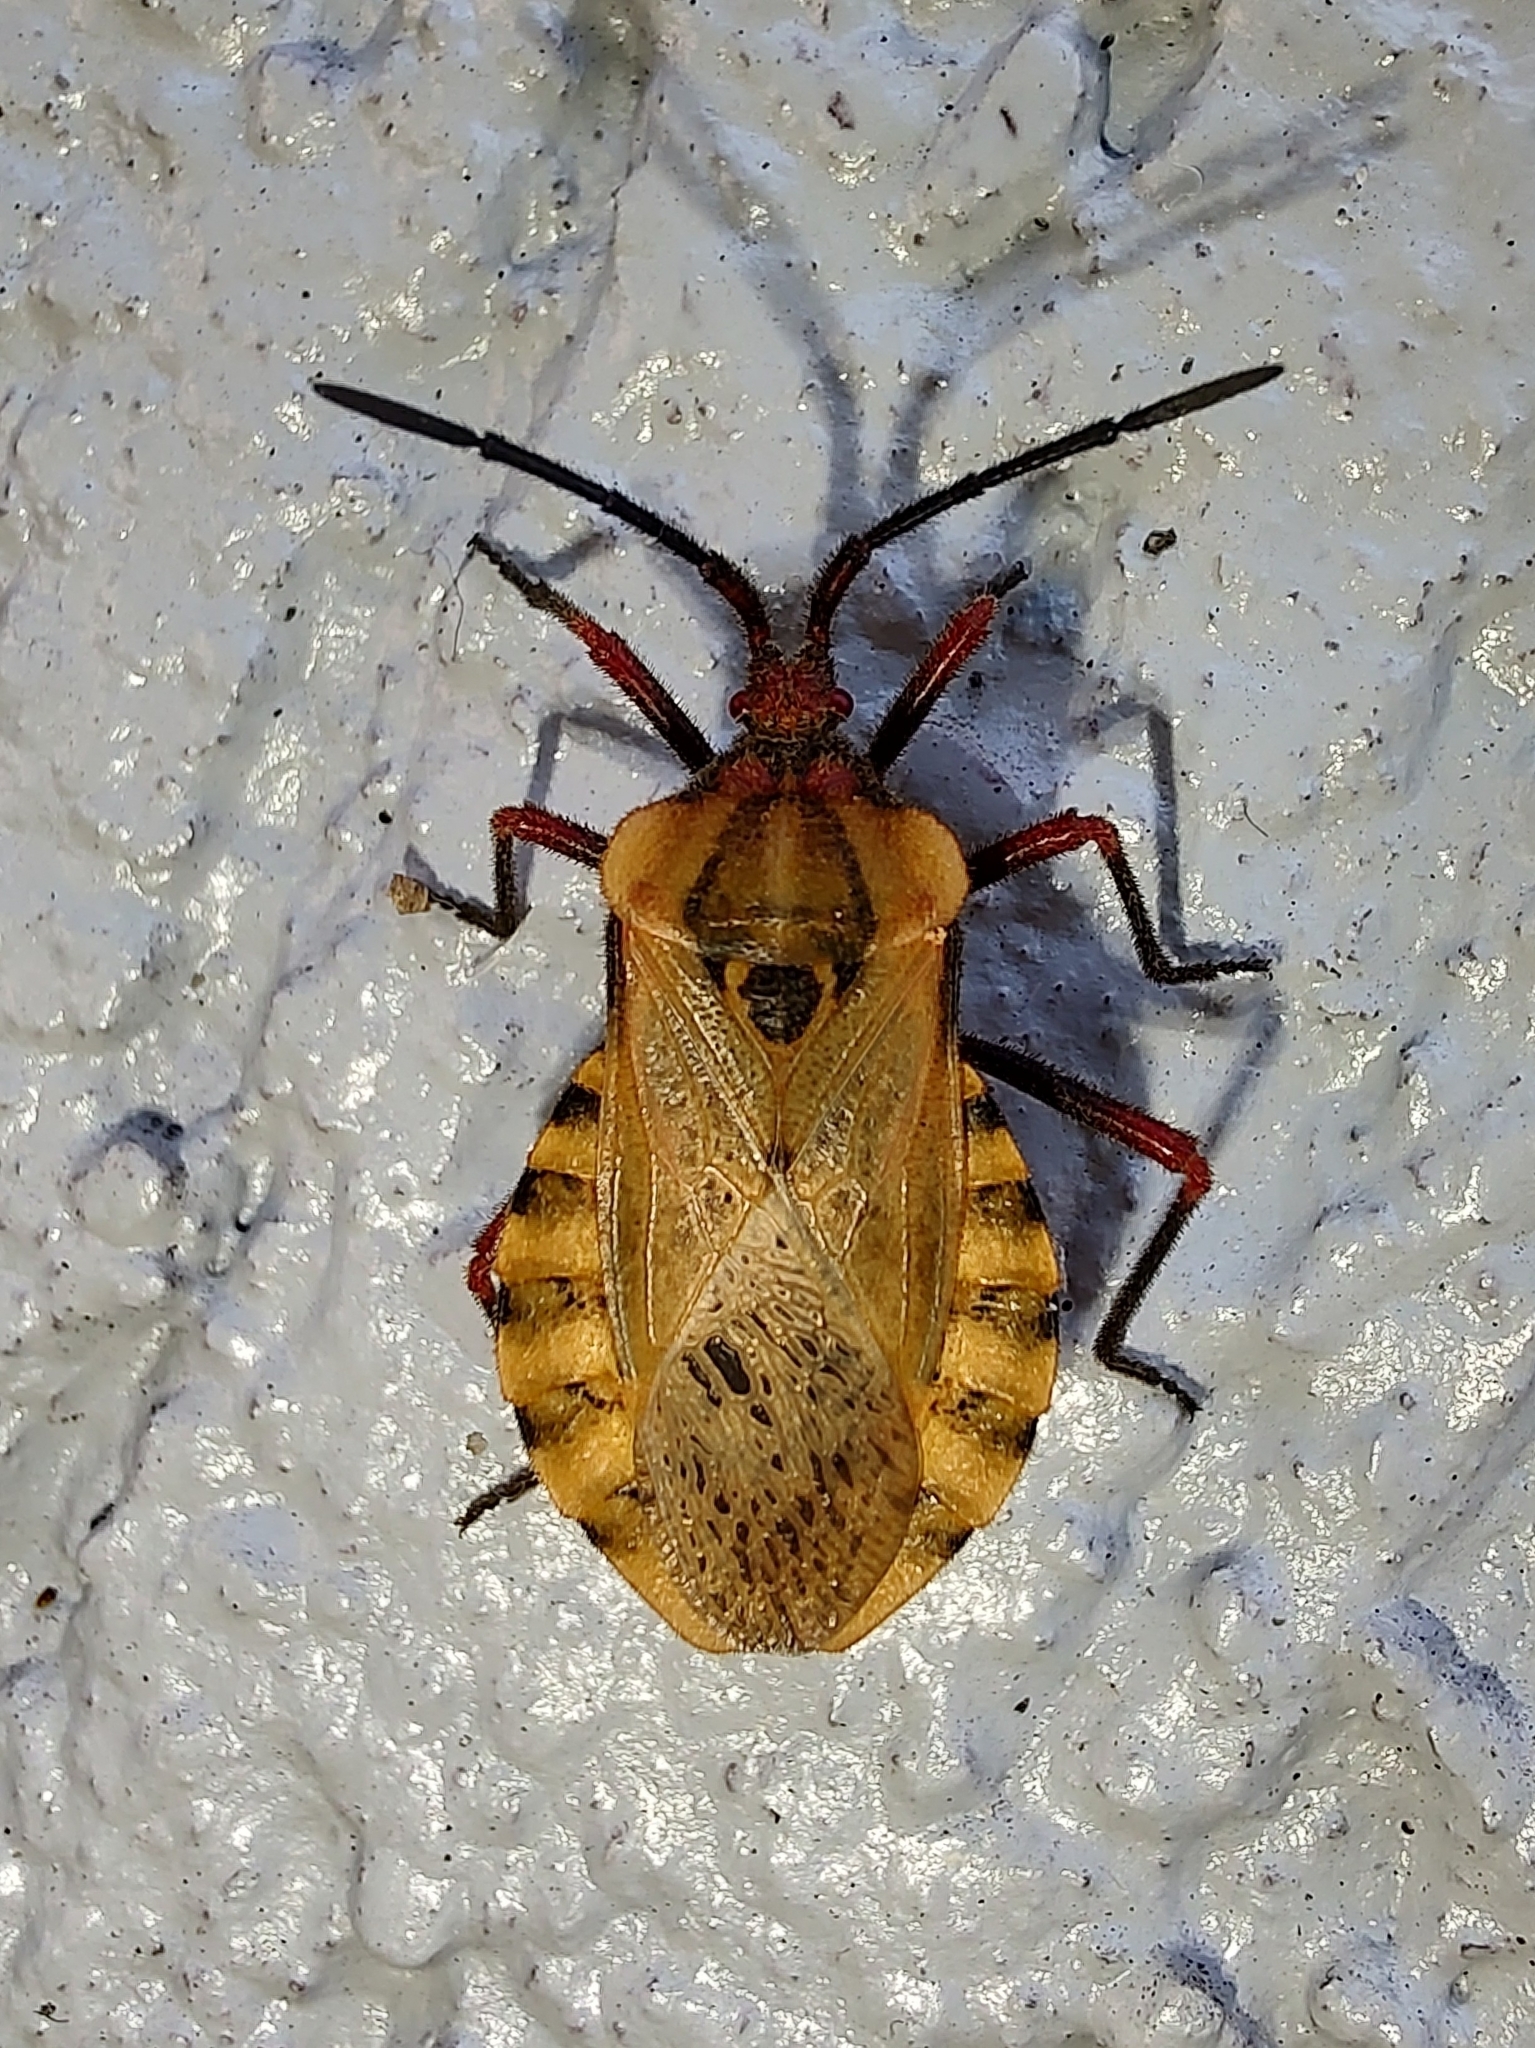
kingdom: Animalia
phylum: Arthropoda
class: Insecta
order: Hemiptera
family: Coreidae
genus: Spartocera
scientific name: Spartocera fusca
